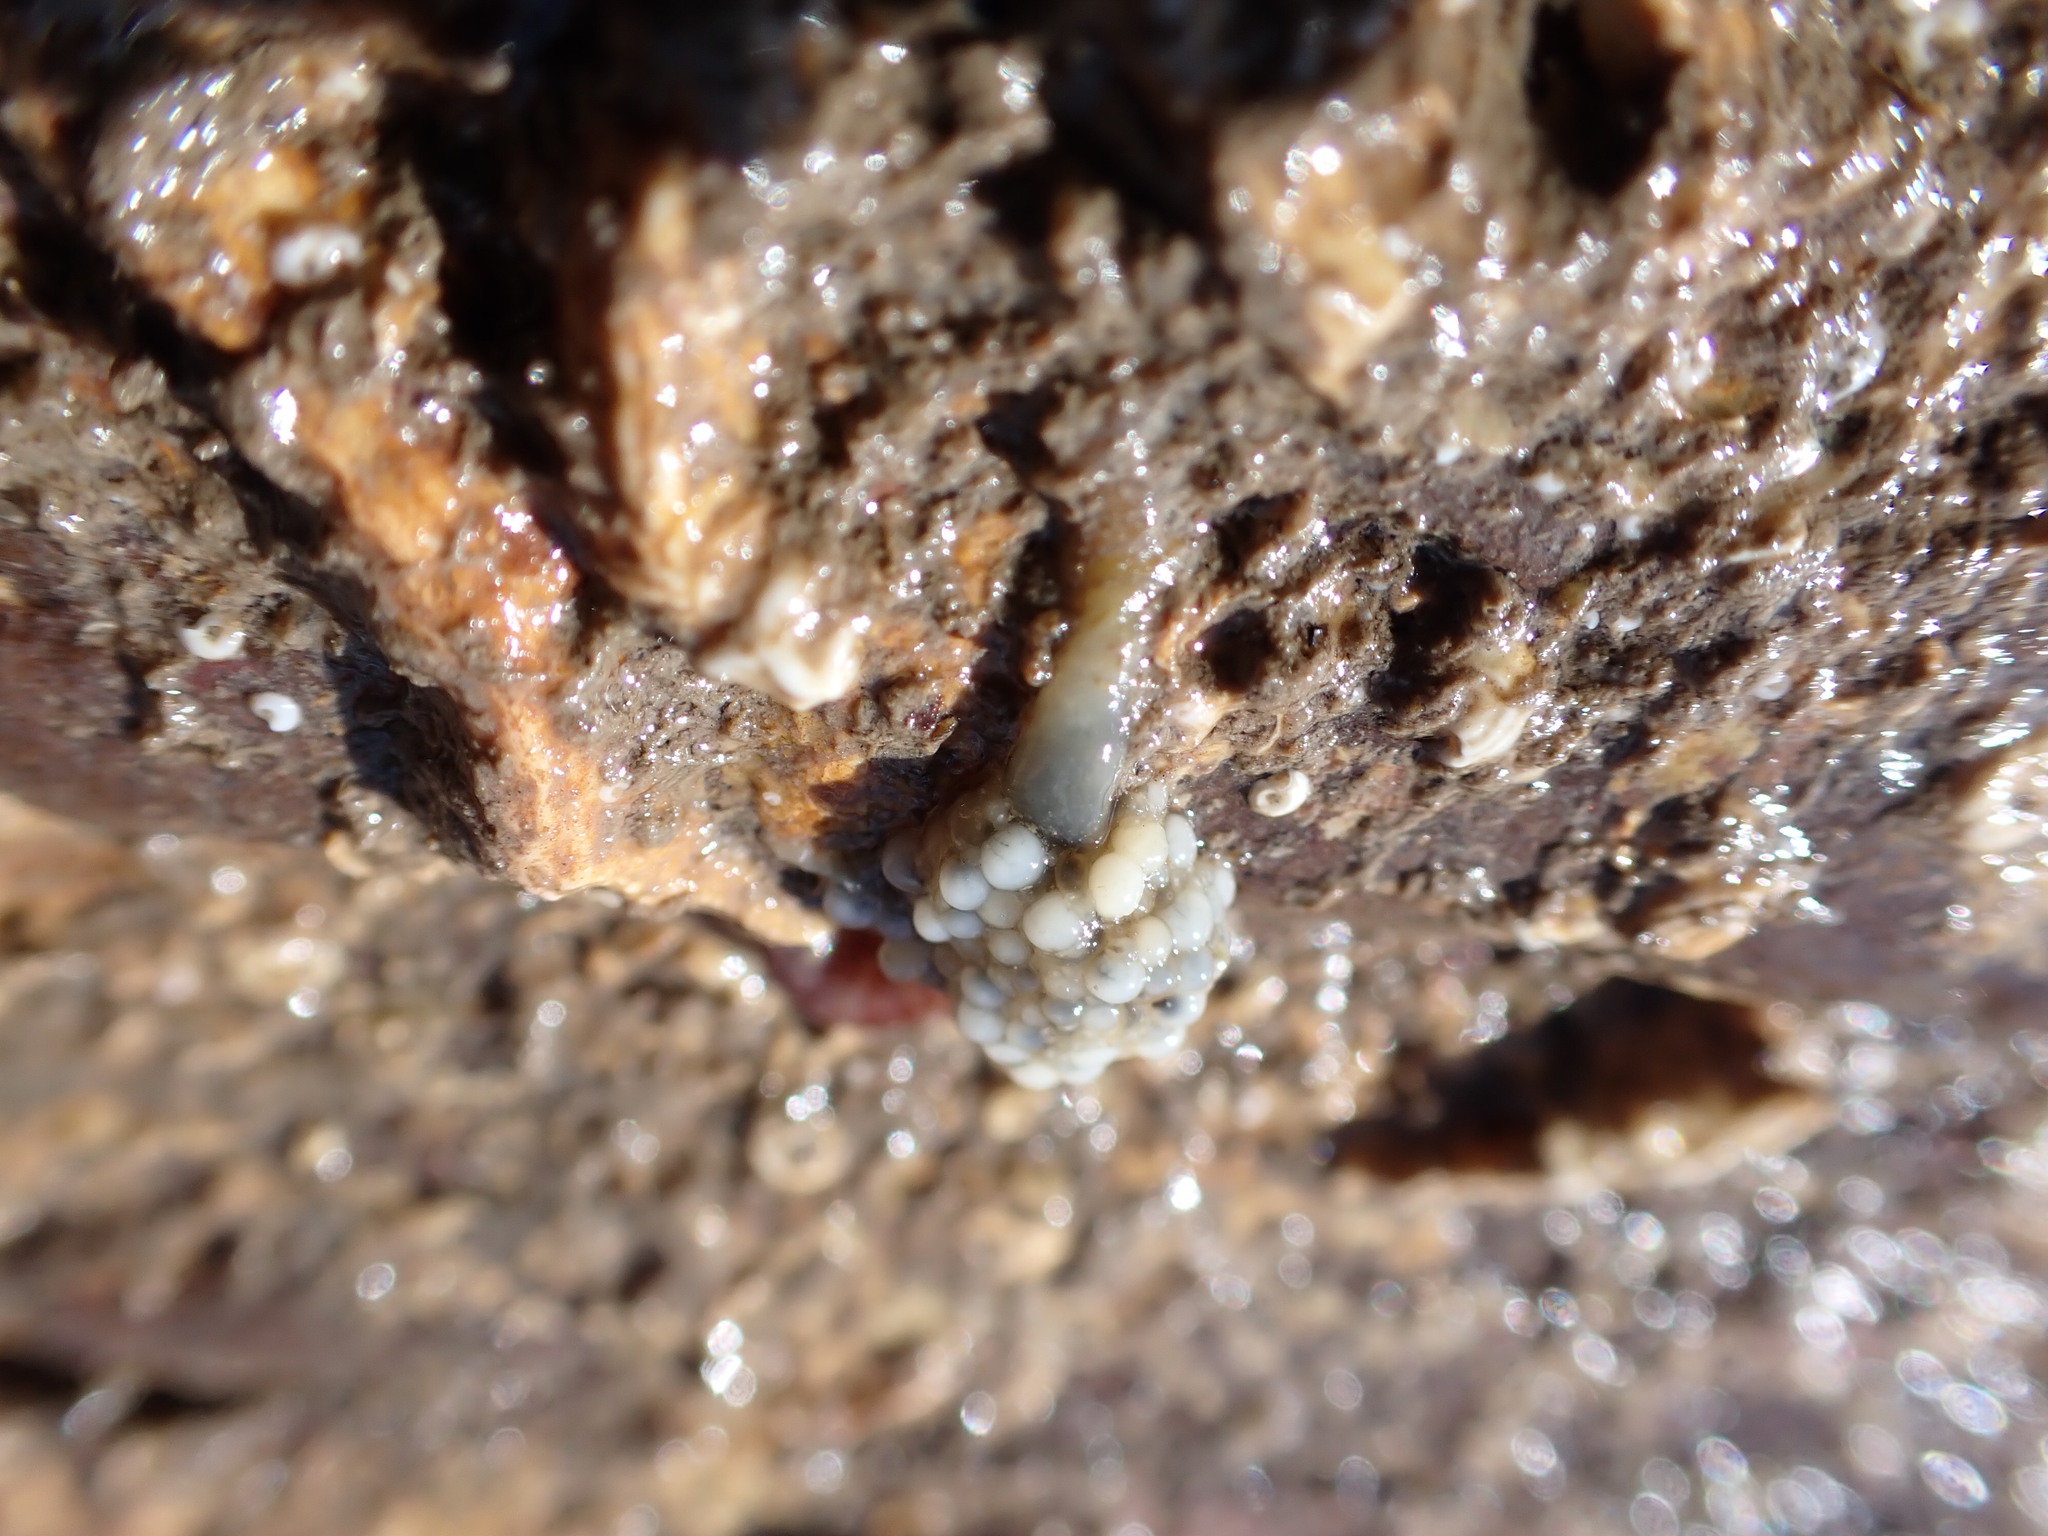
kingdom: Animalia
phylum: Cnidaria
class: Hydrozoa
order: Anthoathecata
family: Candelabridae
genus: Candelabrum
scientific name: Candelabrum cocksii
